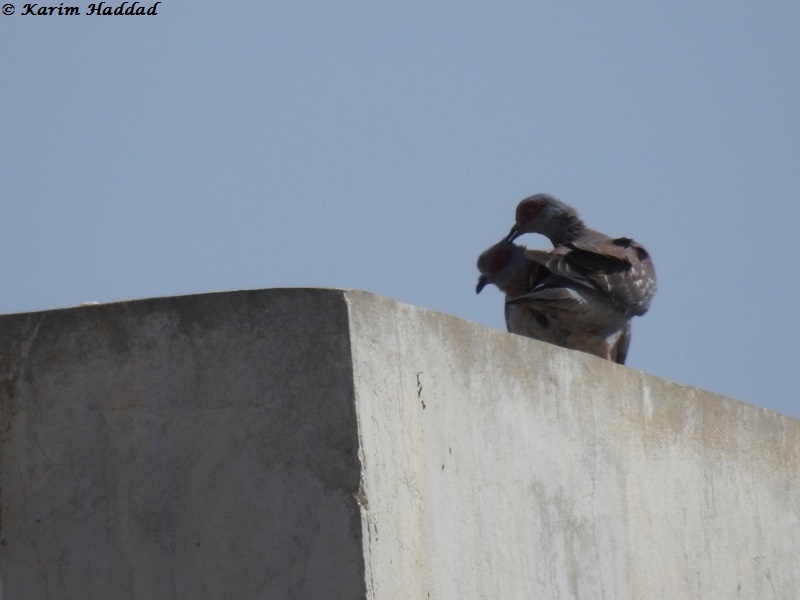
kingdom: Animalia
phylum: Chordata
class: Aves
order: Columbiformes
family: Columbidae
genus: Columba
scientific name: Columba guinea
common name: Speckled pigeon
